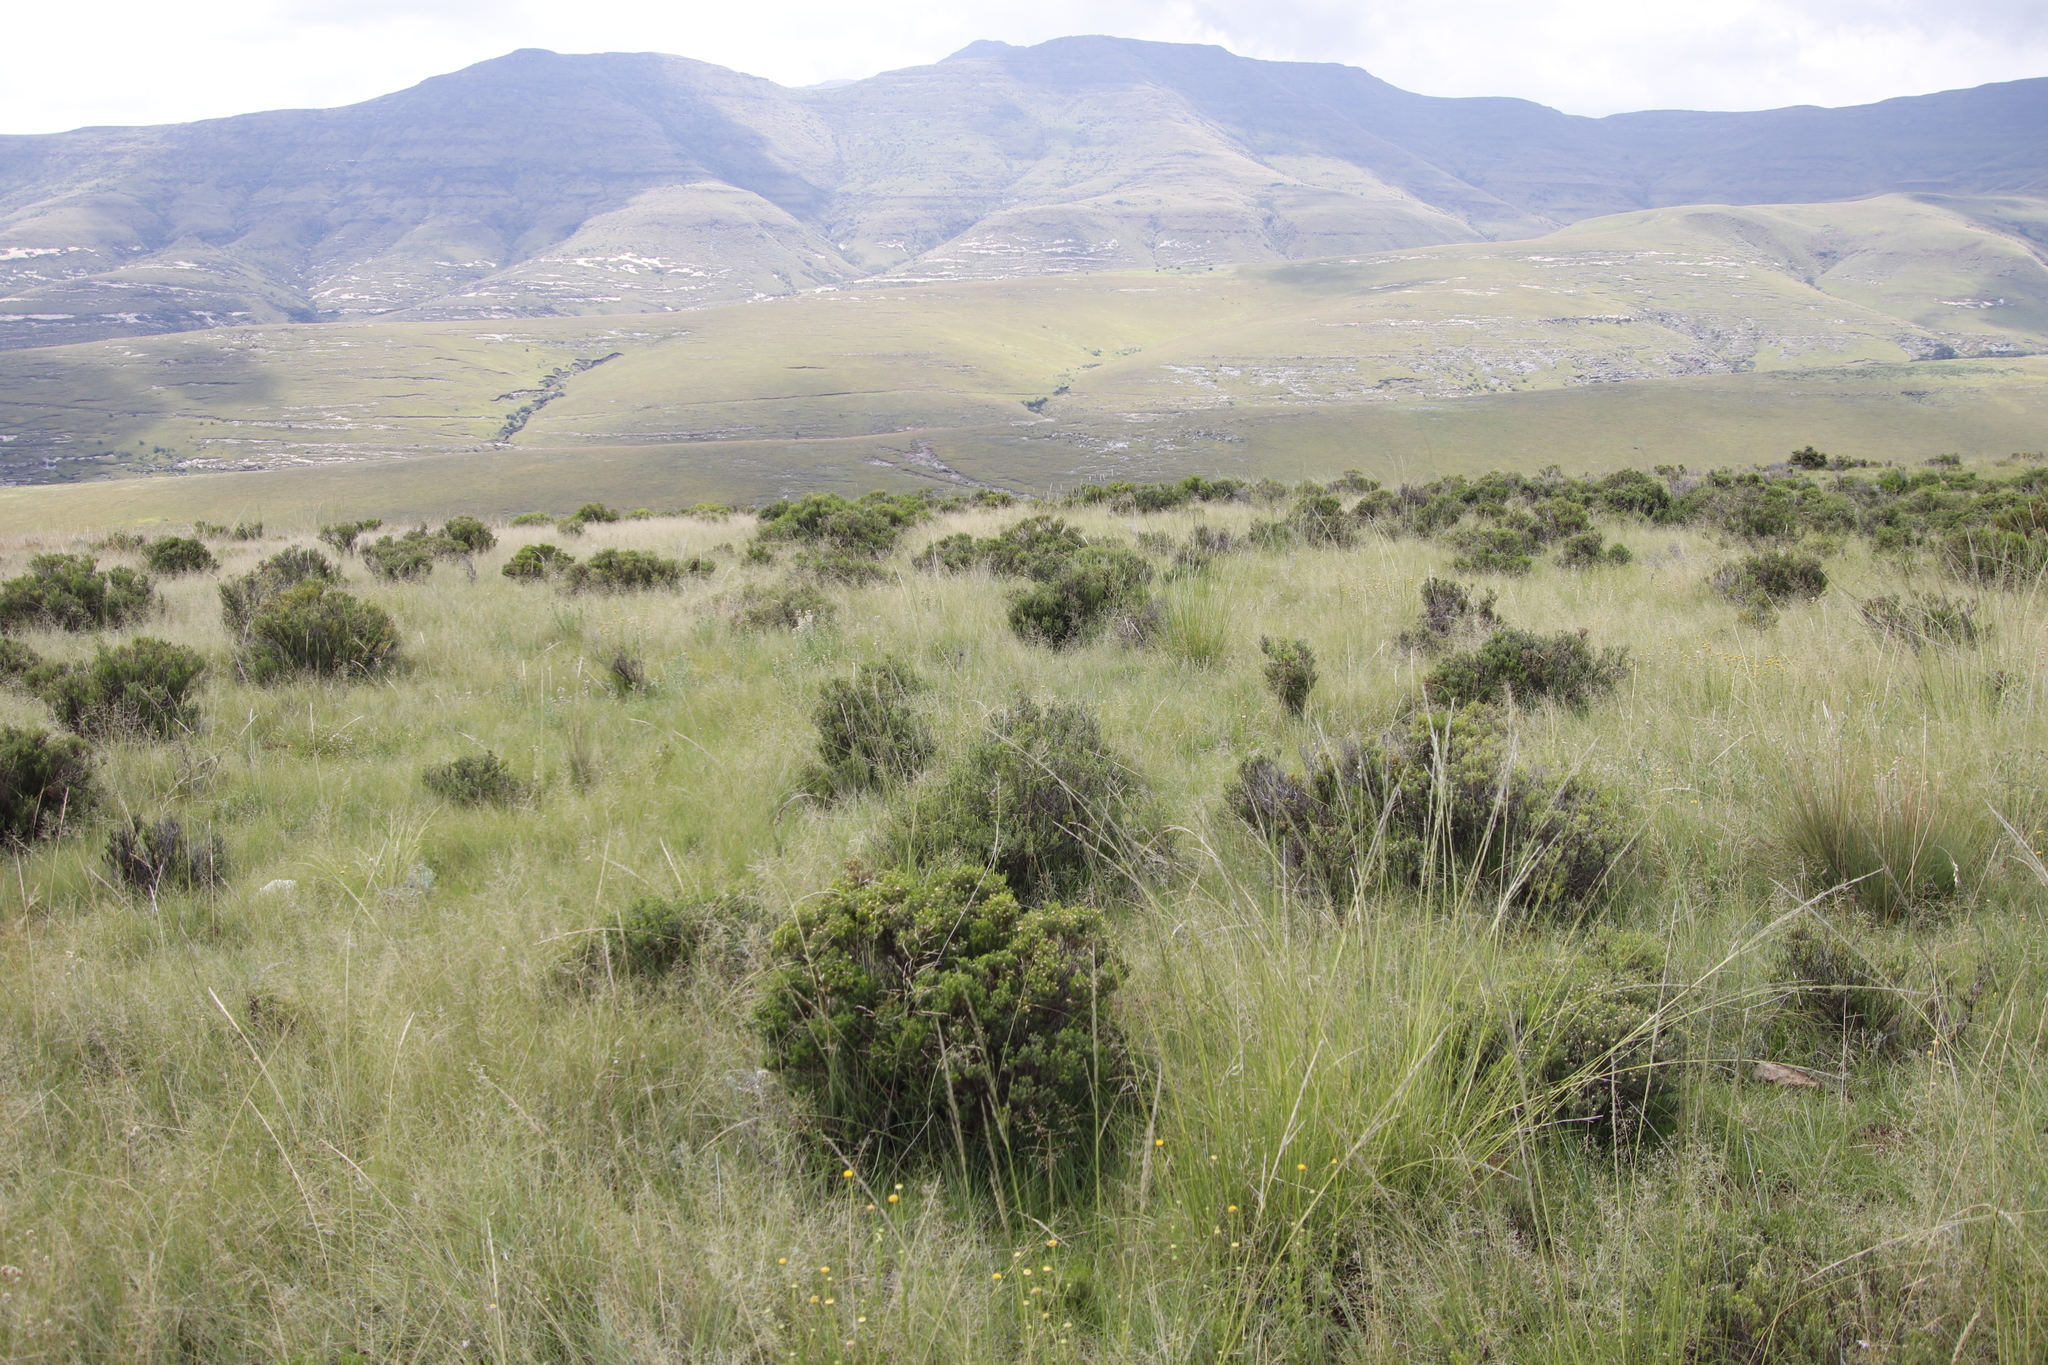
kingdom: Plantae
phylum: Tracheophyta
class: Magnoliopsida
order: Asterales
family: Asteraceae
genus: Chrysocoma
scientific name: Chrysocoma ciliata
